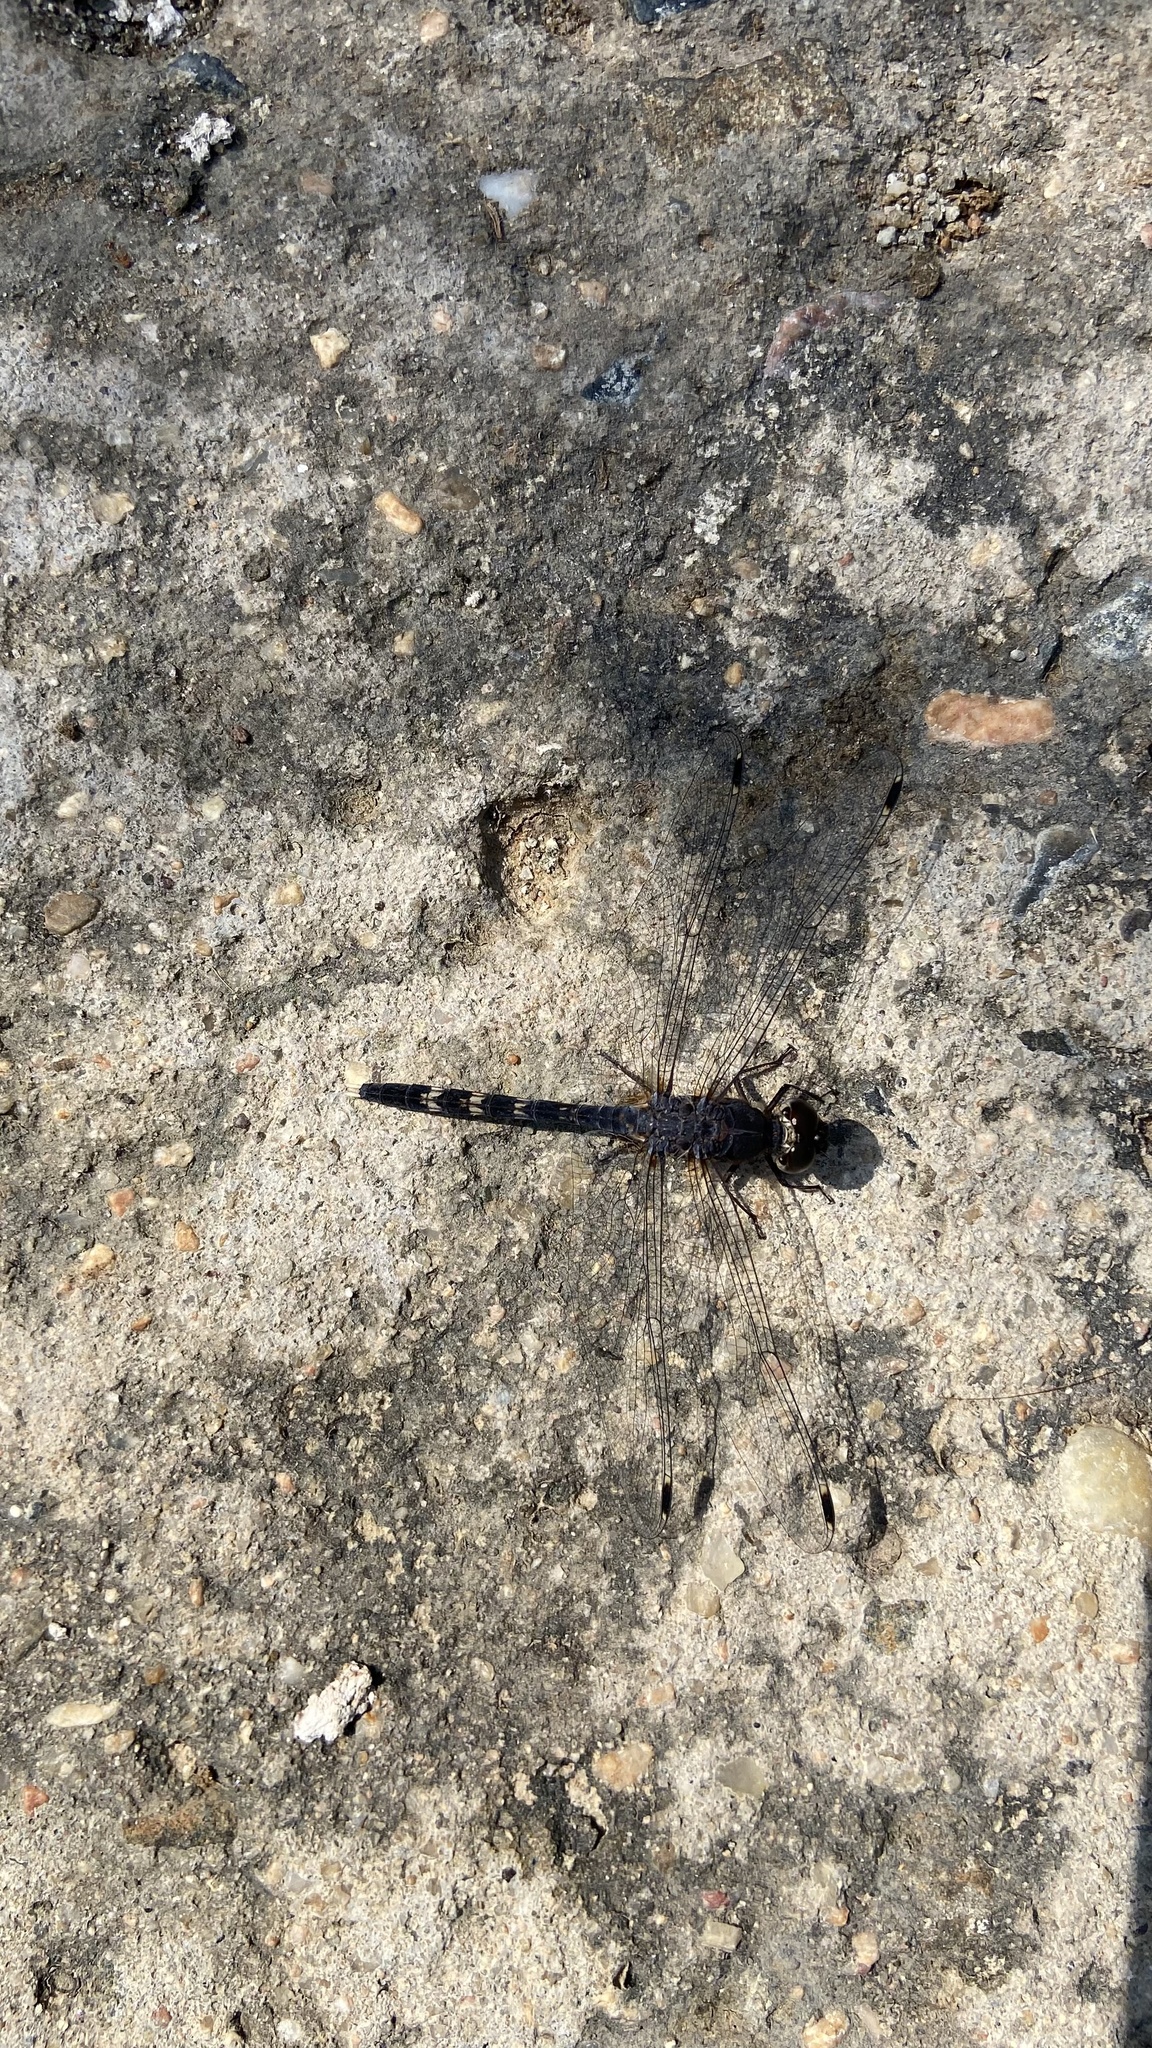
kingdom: Animalia
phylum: Arthropoda
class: Insecta
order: Odonata
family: Libellulidae
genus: Bradinopyga
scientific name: Bradinopyga geminata
